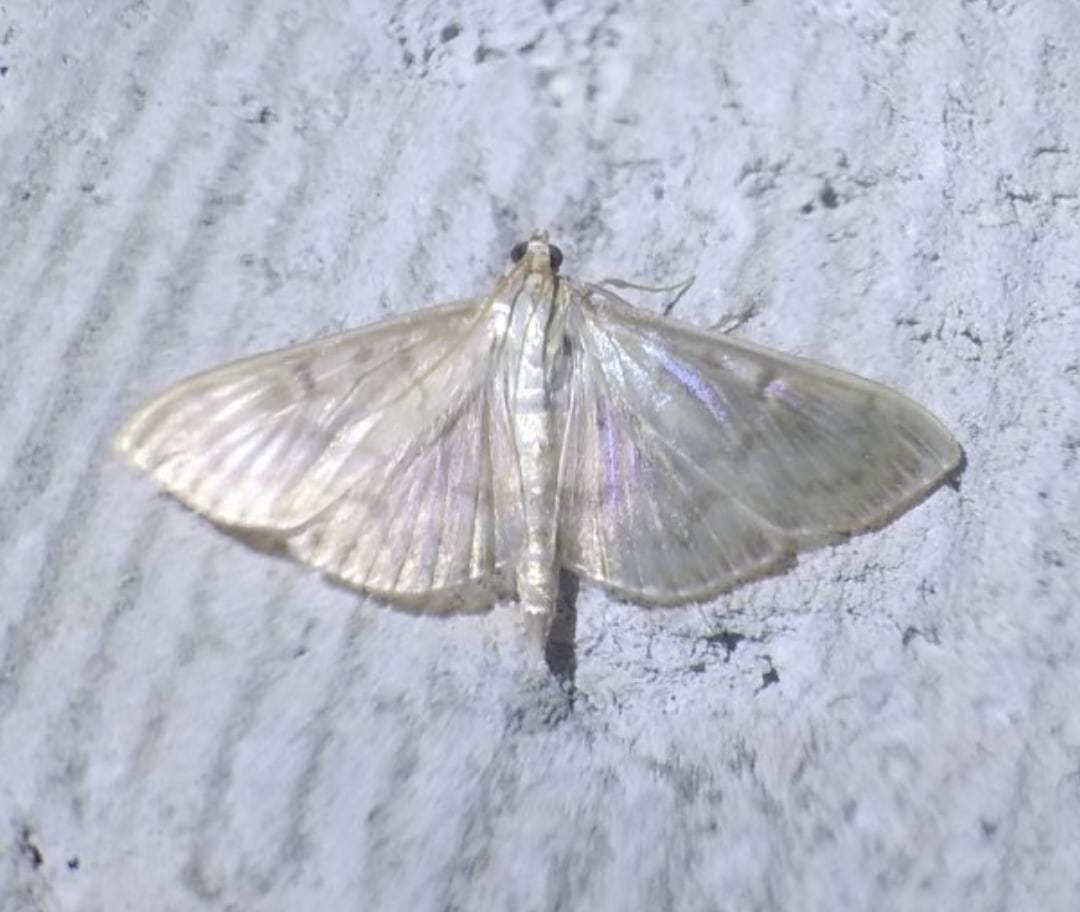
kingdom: Animalia
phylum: Arthropoda
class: Insecta
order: Lepidoptera
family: Crambidae
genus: Patania
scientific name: Patania ruralis
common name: Mother of pearl
